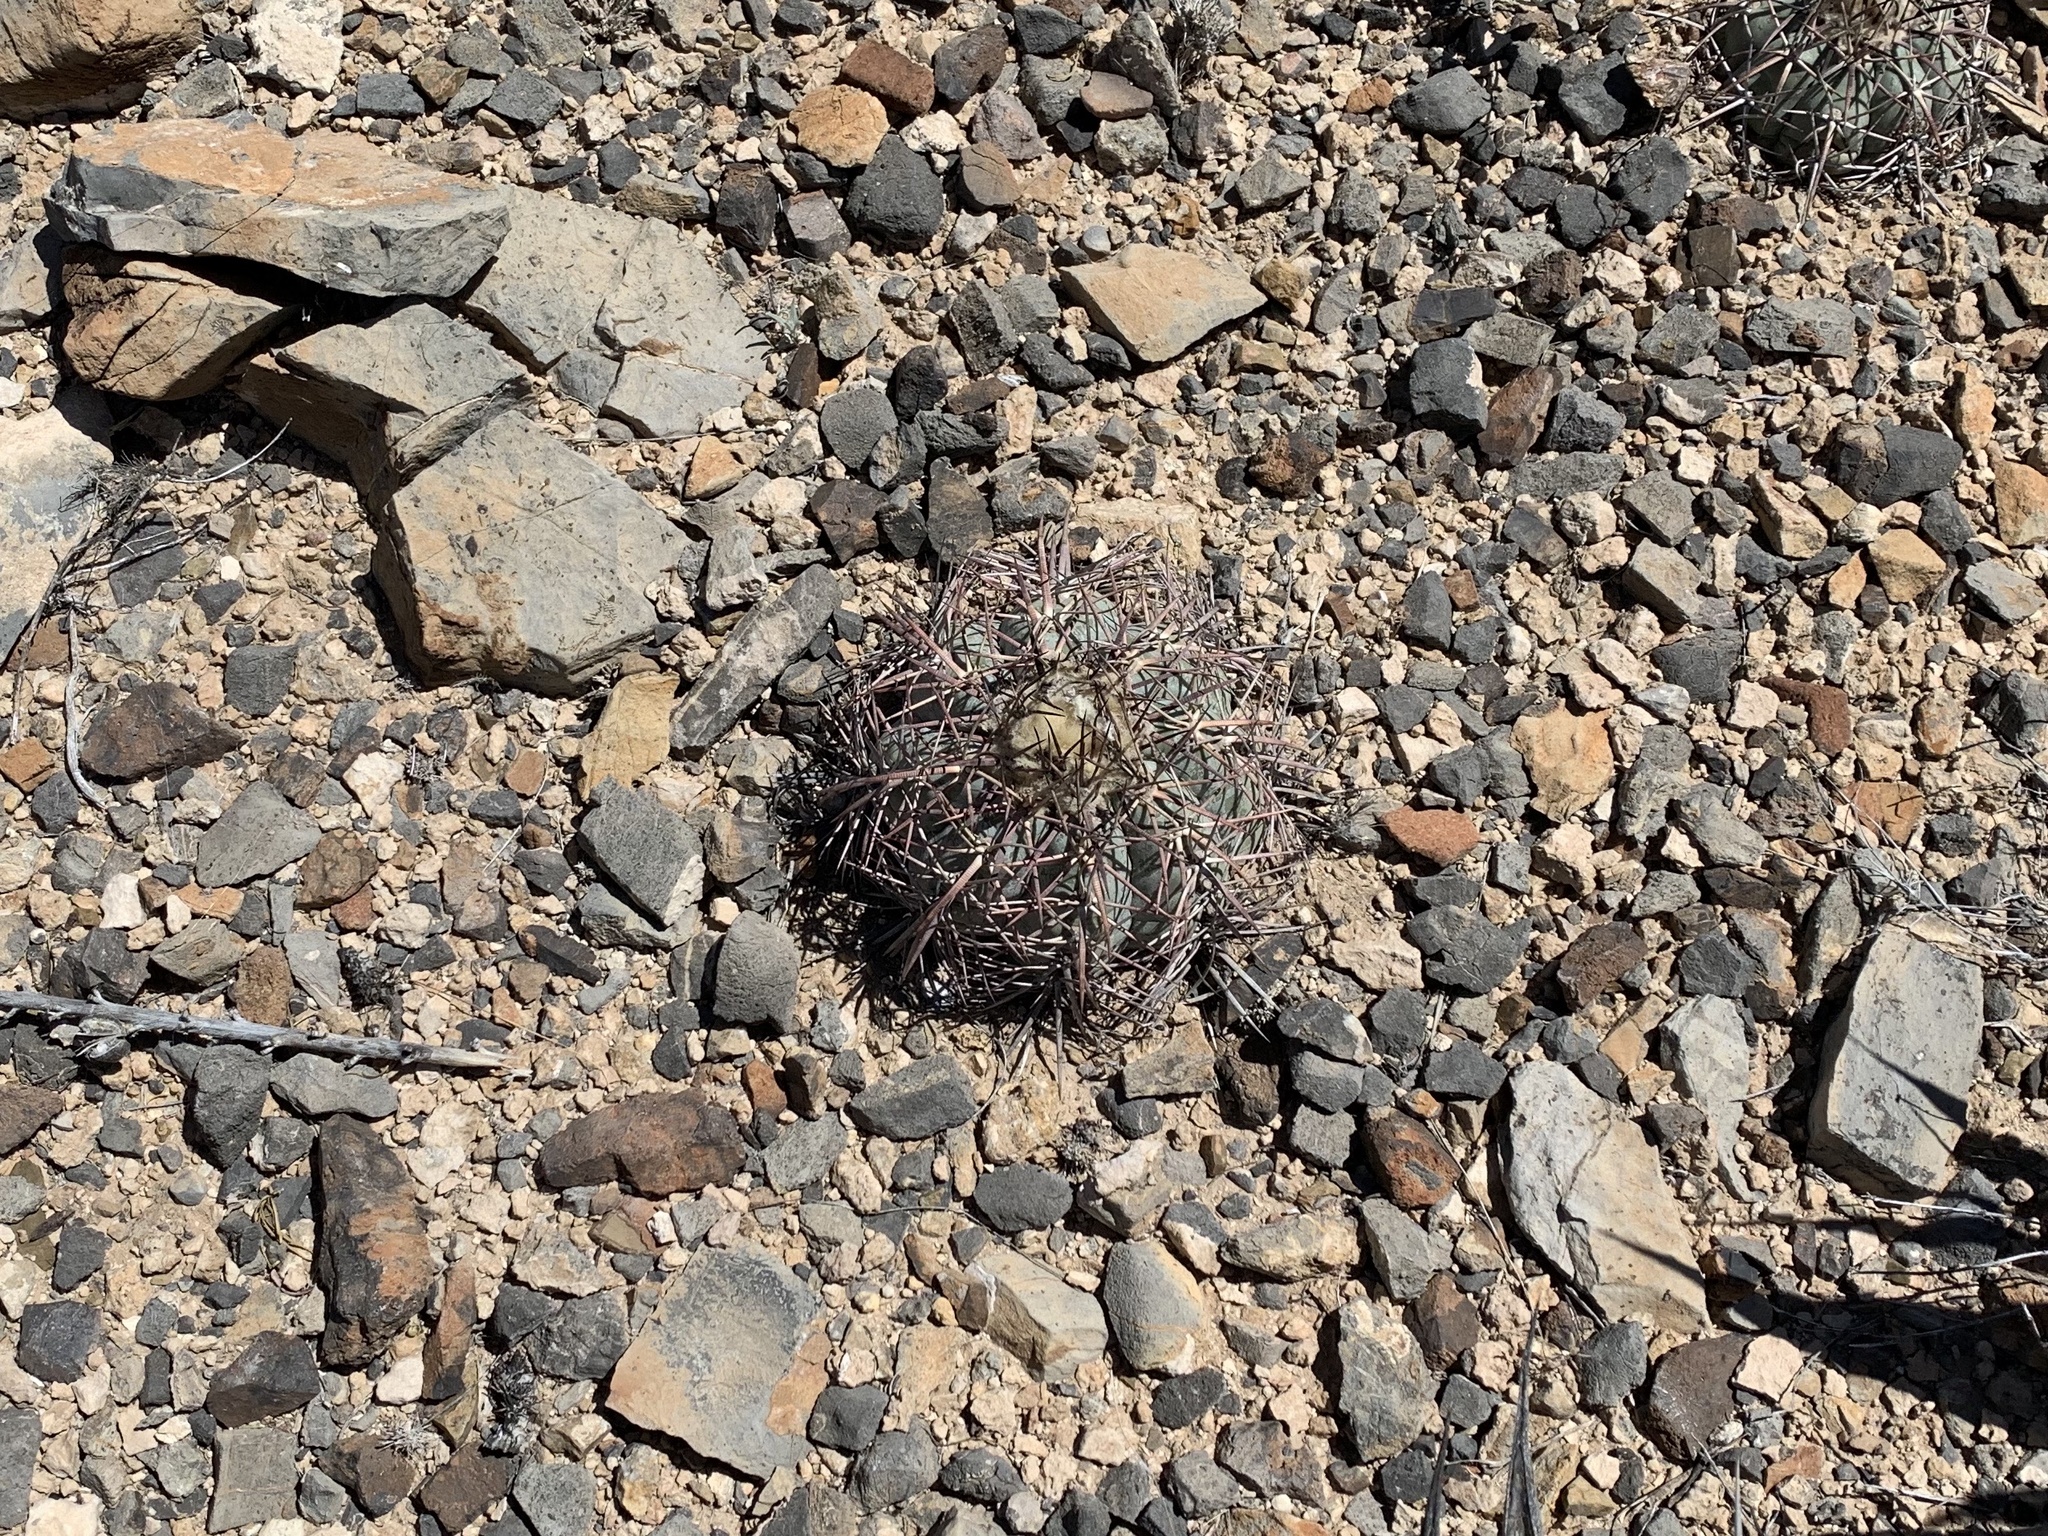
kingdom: Plantae
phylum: Tracheophyta
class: Magnoliopsida
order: Caryophyllales
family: Cactaceae
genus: Echinocactus
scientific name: Echinocactus horizonthalonius
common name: Devilshead
